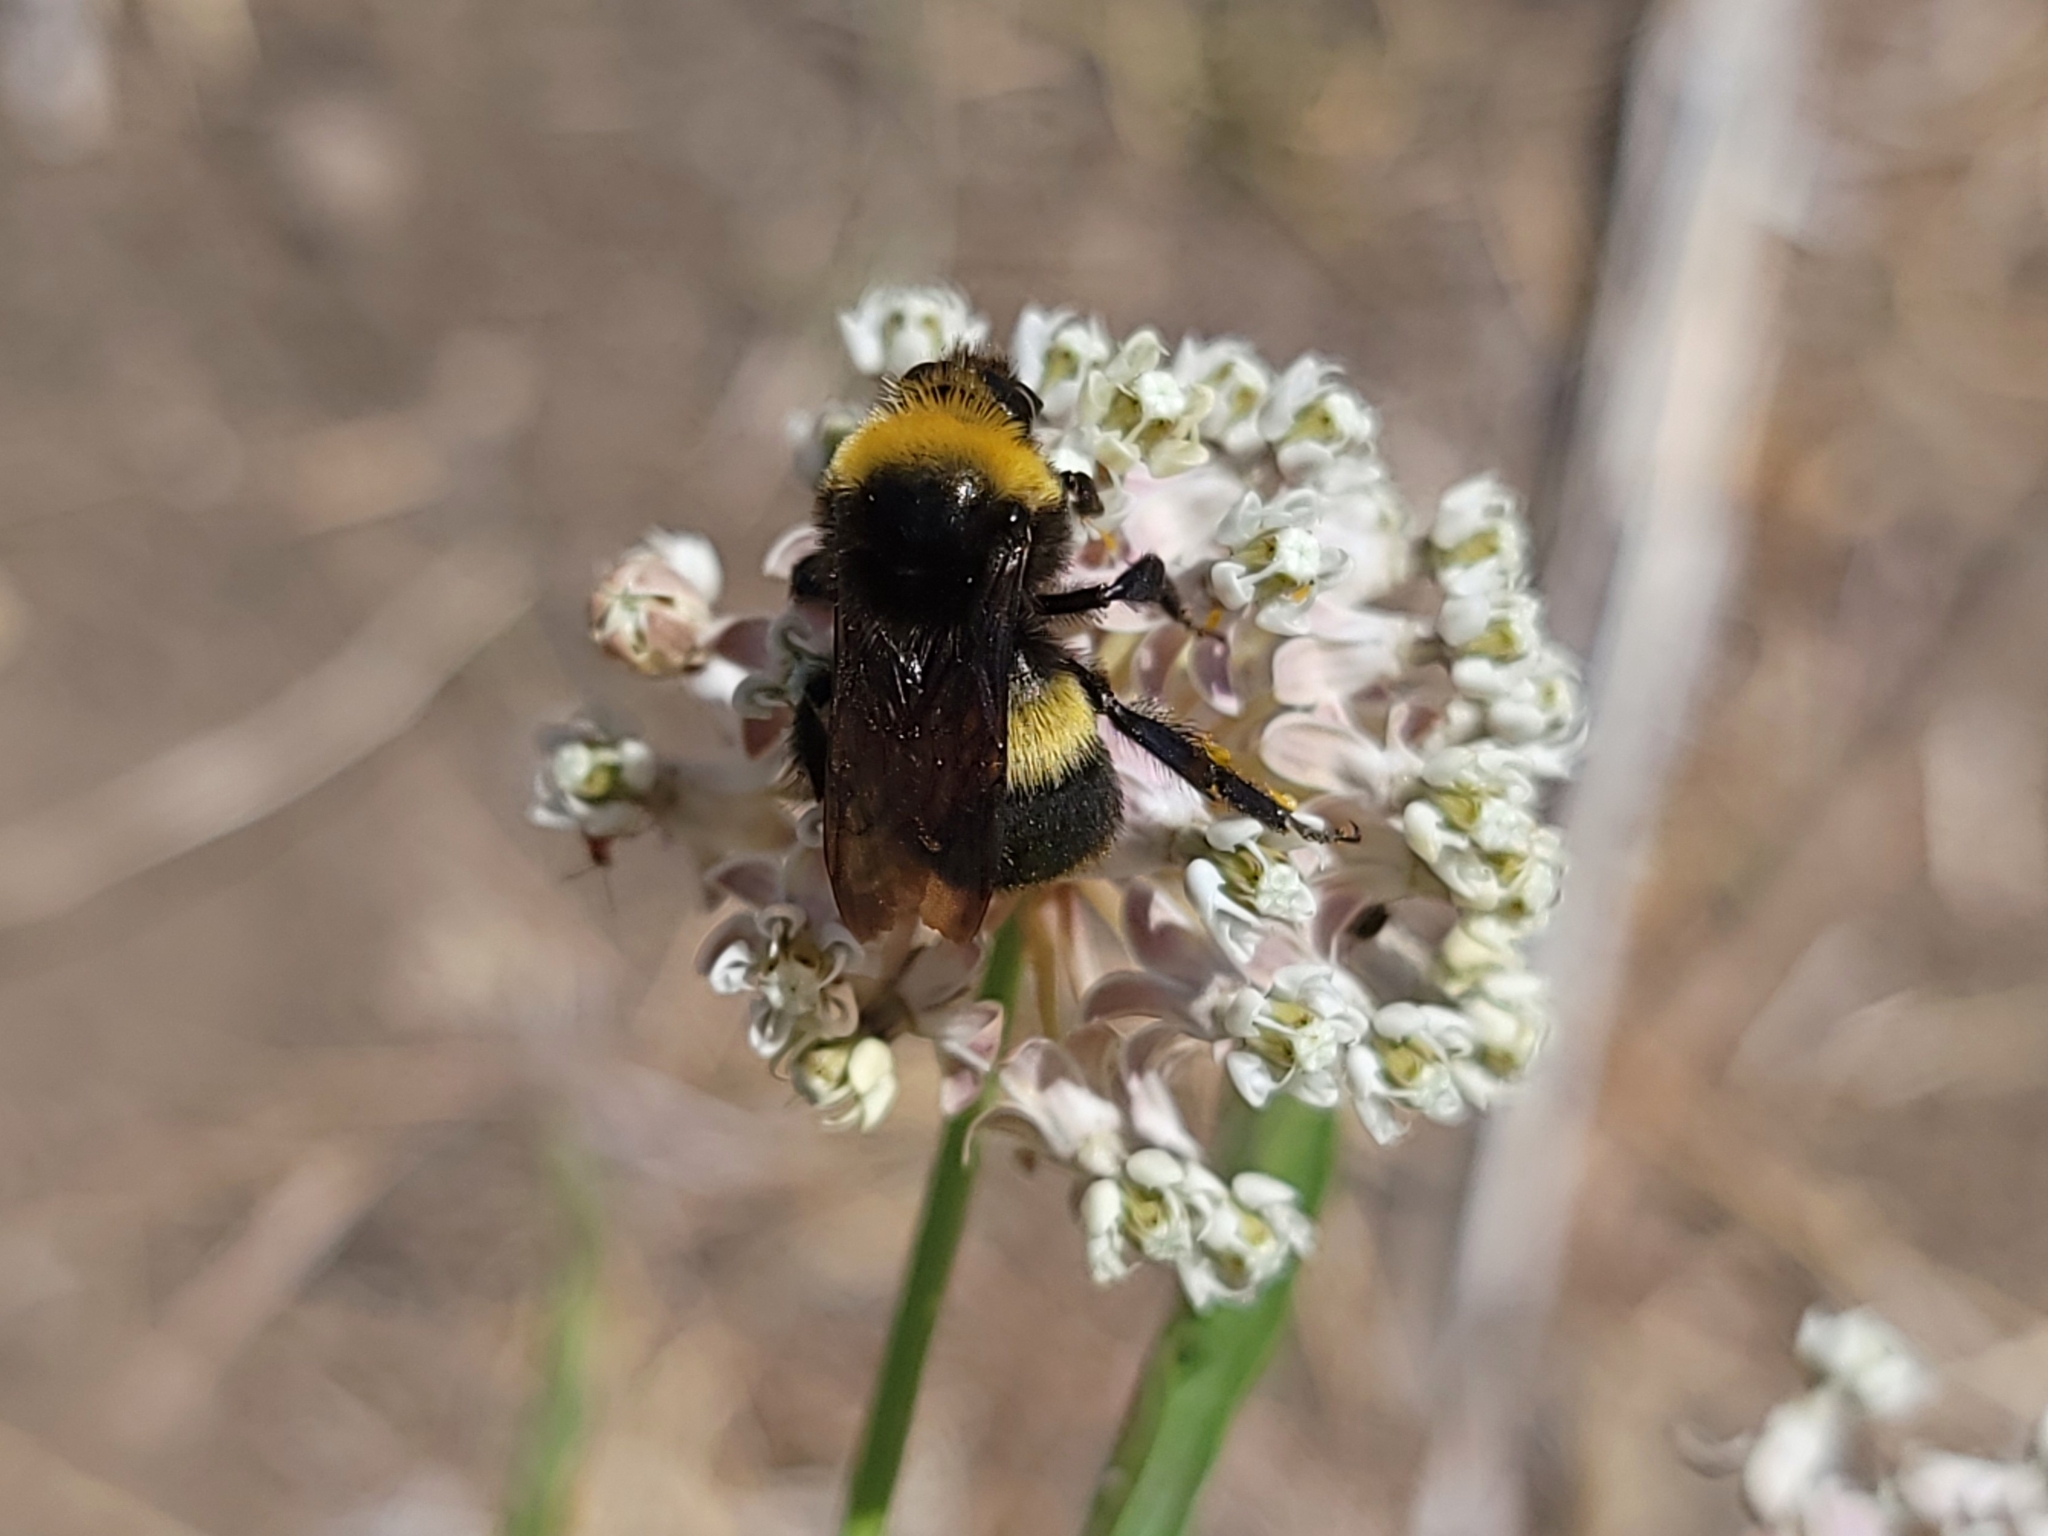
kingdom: Animalia
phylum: Arthropoda
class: Insecta
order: Hymenoptera
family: Apidae
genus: Bombus
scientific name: Bombus crotchii
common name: Crotch bumble bee
